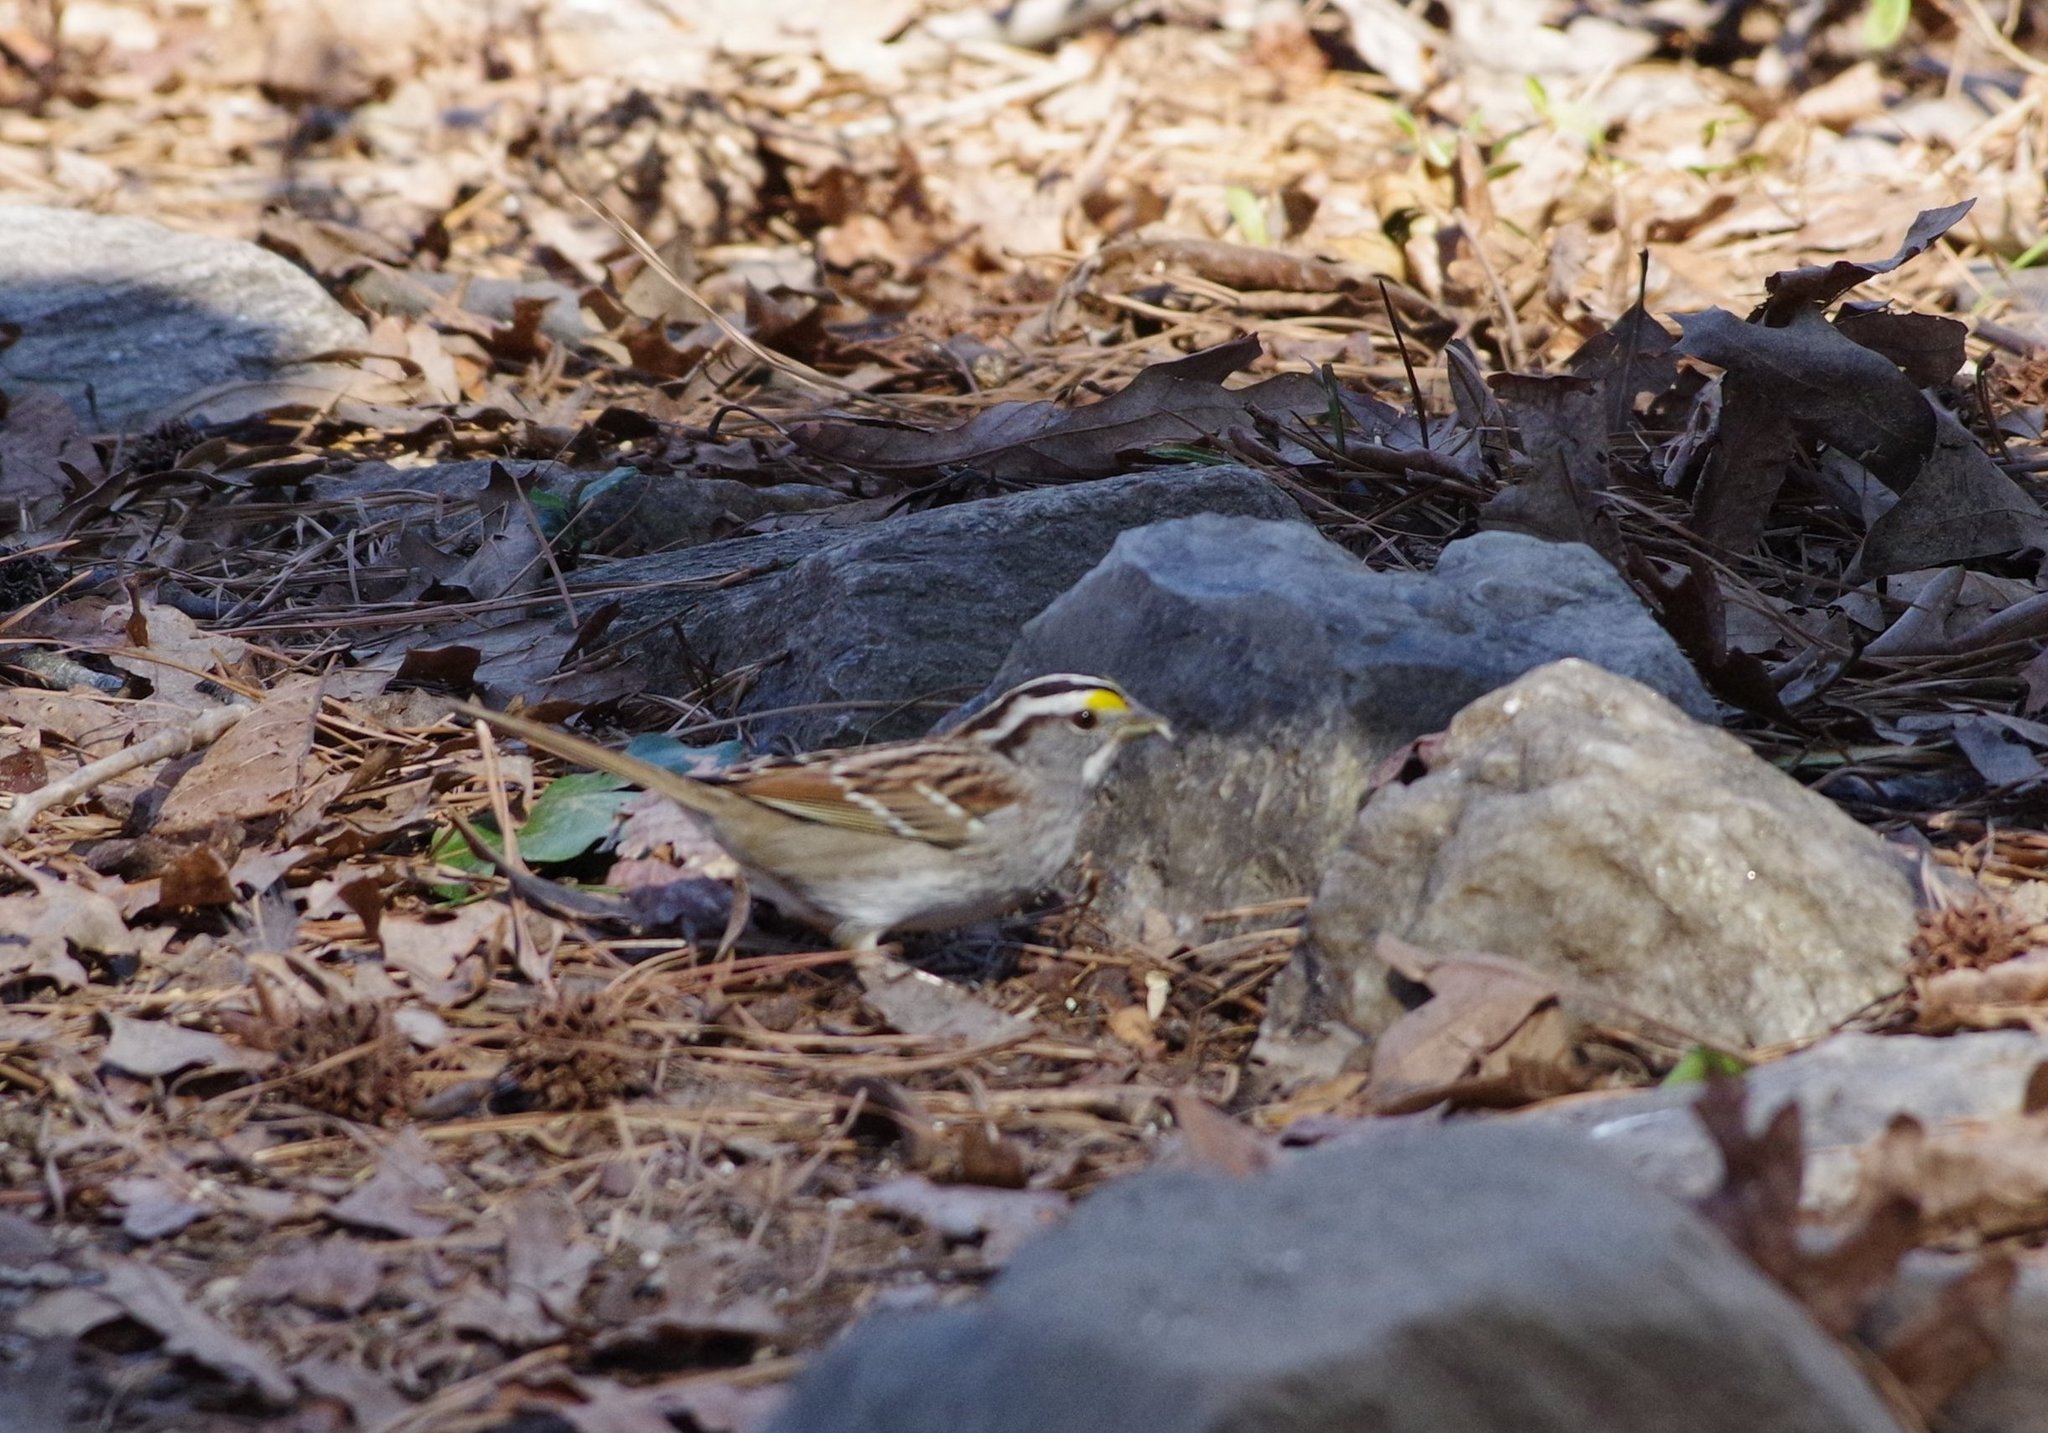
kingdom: Animalia
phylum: Chordata
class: Aves
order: Passeriformes
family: Passerellidae
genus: Zonotrichia
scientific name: Zonotrichia albicollis
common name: White-throated sparrow
